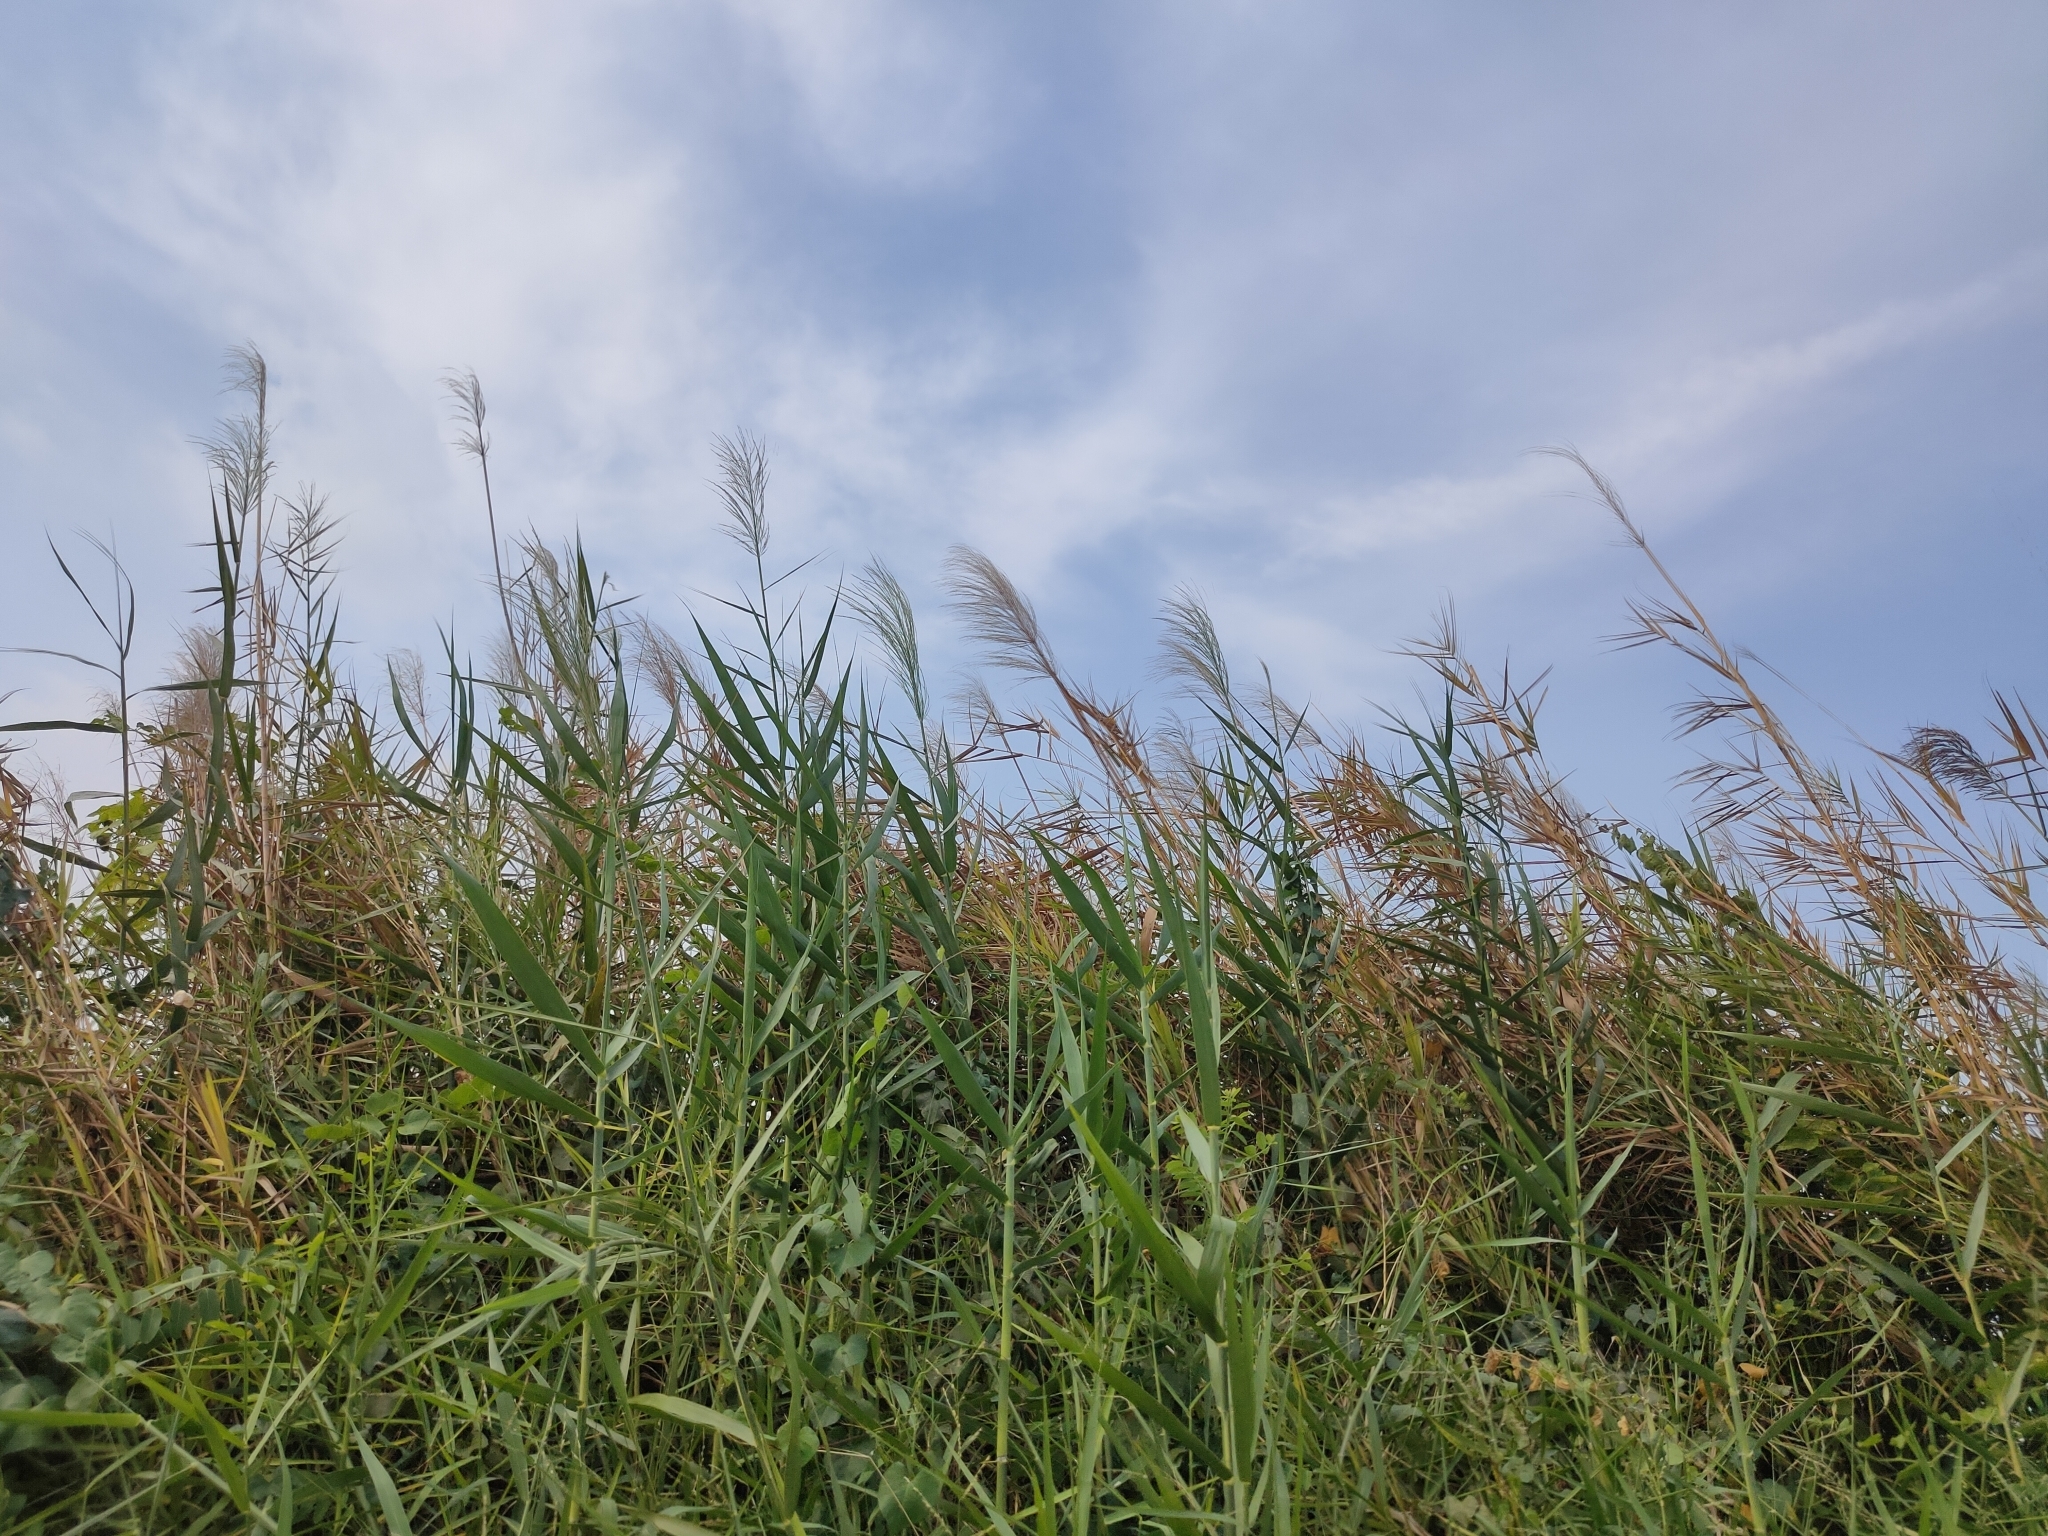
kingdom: Plantae
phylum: Tracheophyta
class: Liliopsida
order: Poales
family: Poaceae
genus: Phragmites
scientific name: Phragmites karka
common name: Tropical reed
